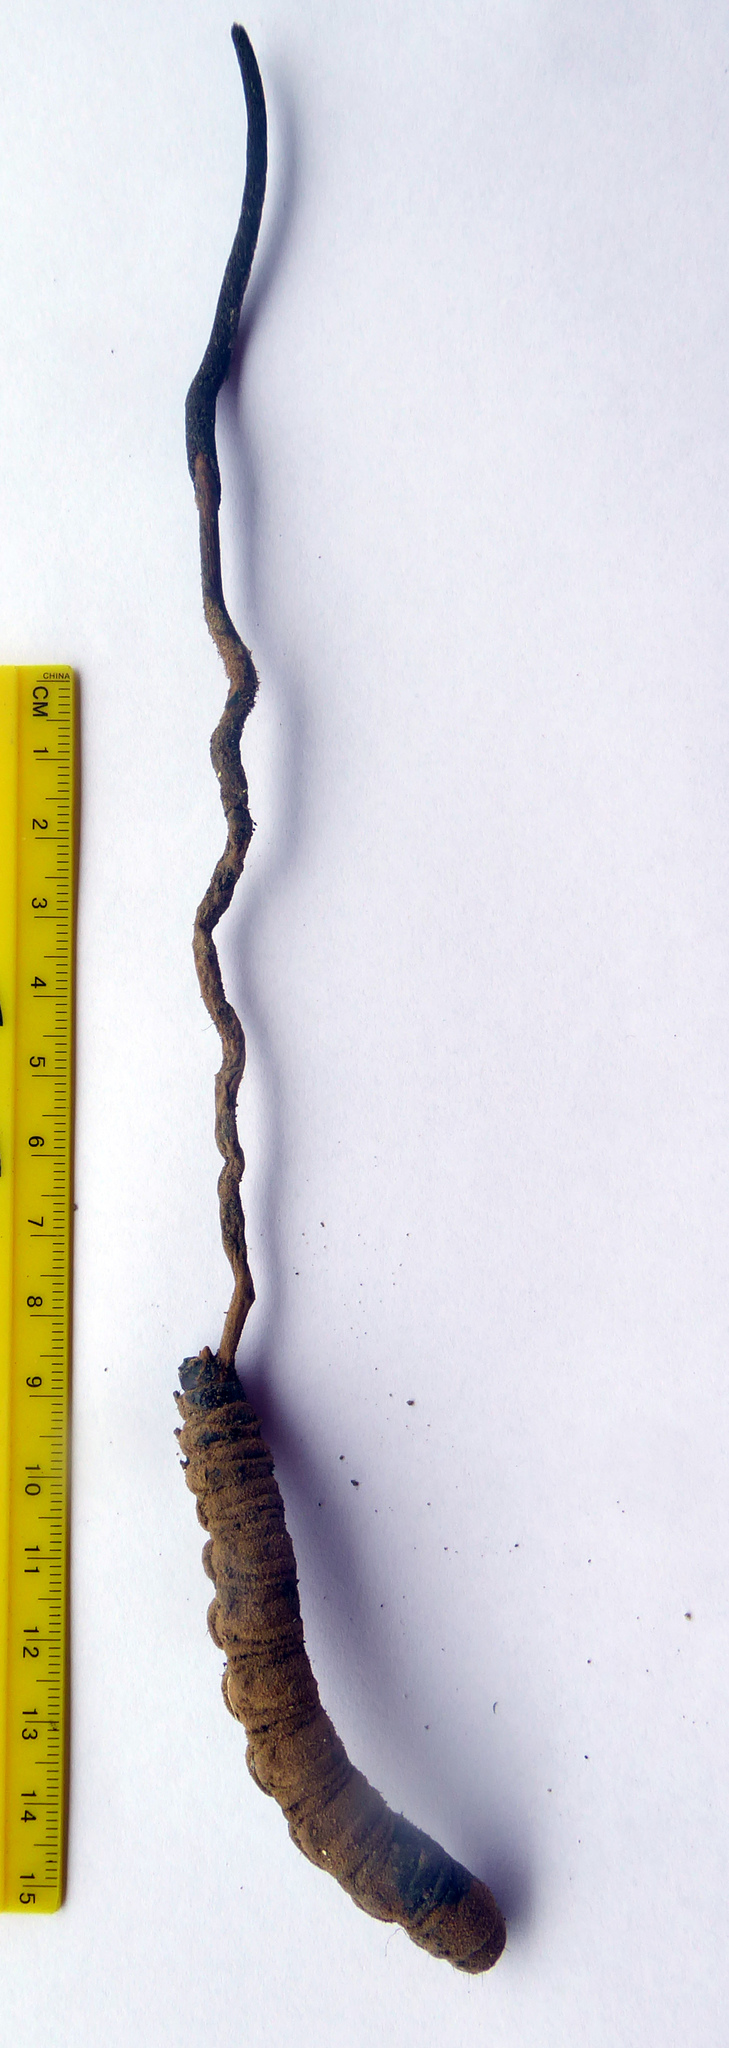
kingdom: Fungi
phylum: Ascomycota
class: Sordariomycetes
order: Hypocreales
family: Ophiocordycipitaceae
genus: Ophiocordyceps
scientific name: Ophiocordyceps robertsii
